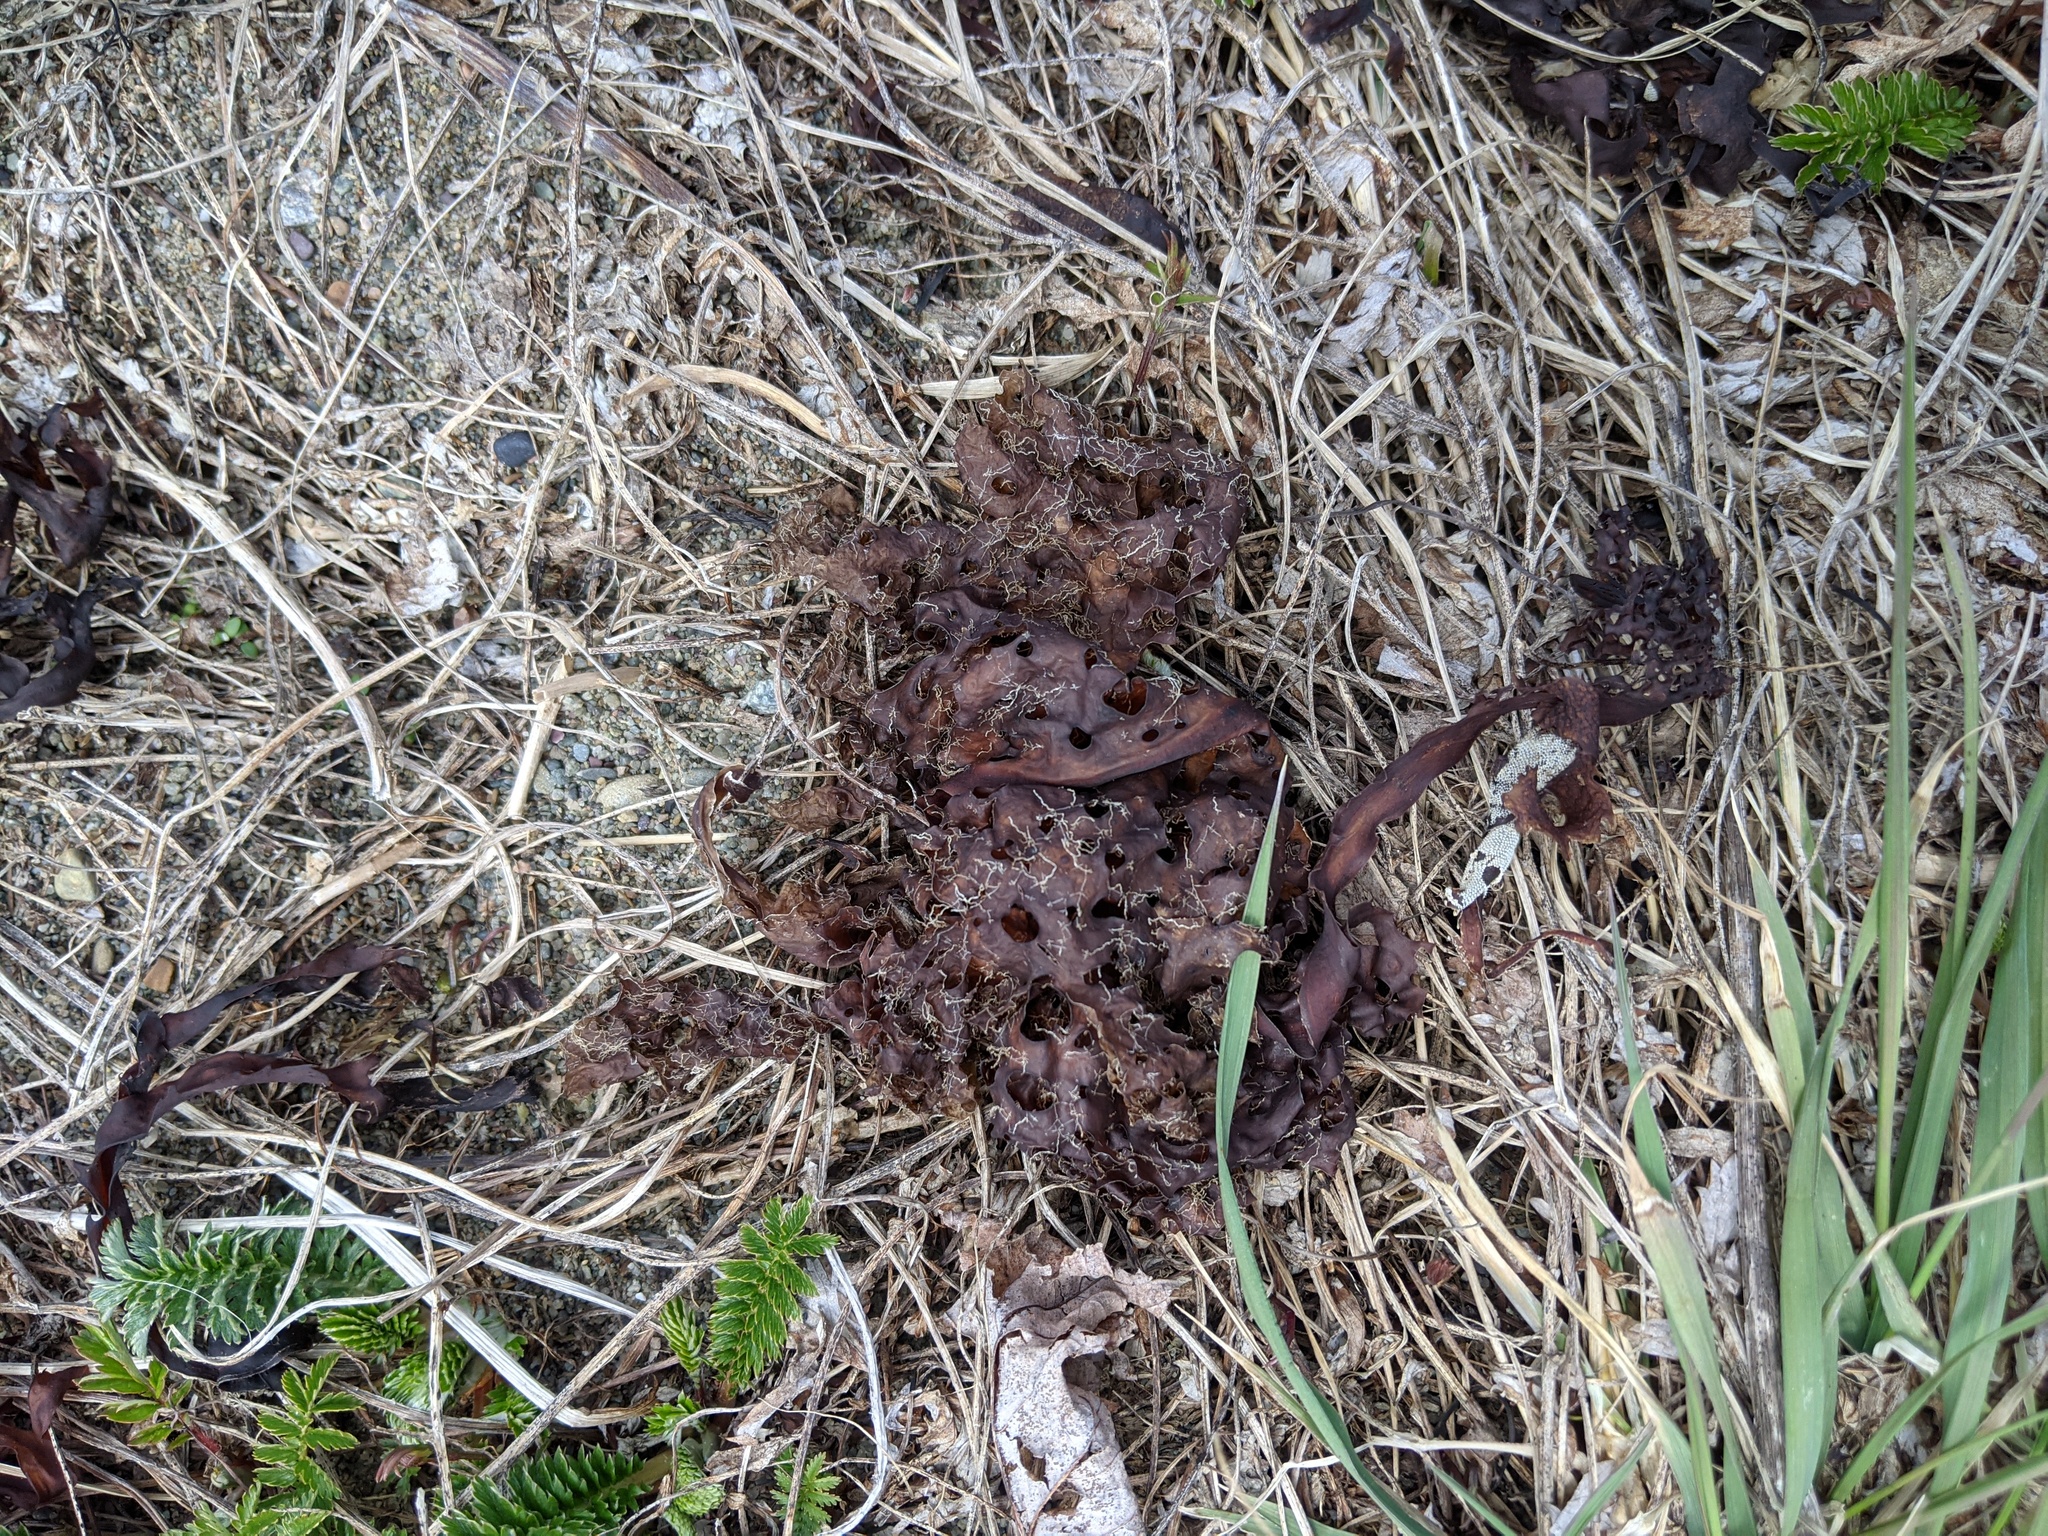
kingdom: Chromista
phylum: Ochrophyta
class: Phaeophyceae
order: Laminariales
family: Costariaceae
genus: Agarum
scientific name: Agarum clathratum
